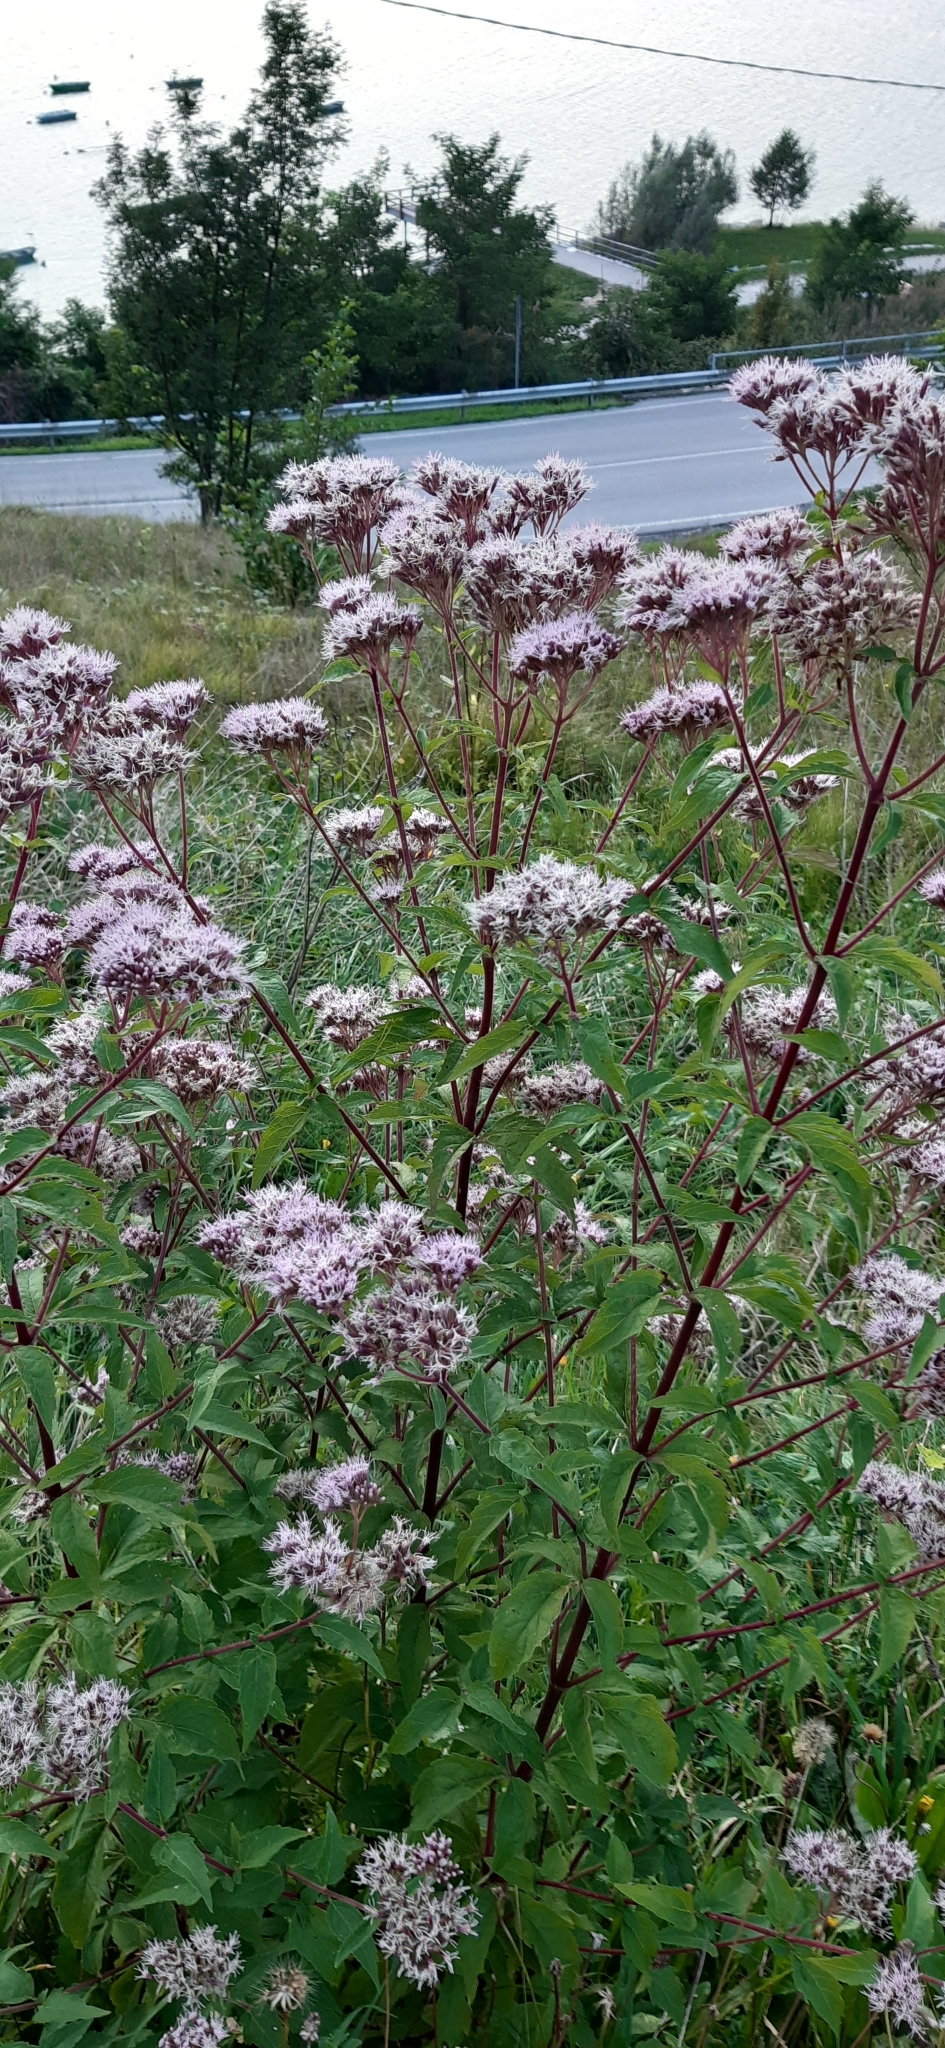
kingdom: Plantae
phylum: Tracheophyta
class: Magnoliopsida
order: Asterales
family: Asteraceae
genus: Eupatorium
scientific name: Eupatorium cannabinum
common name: Hemp-agrimony
